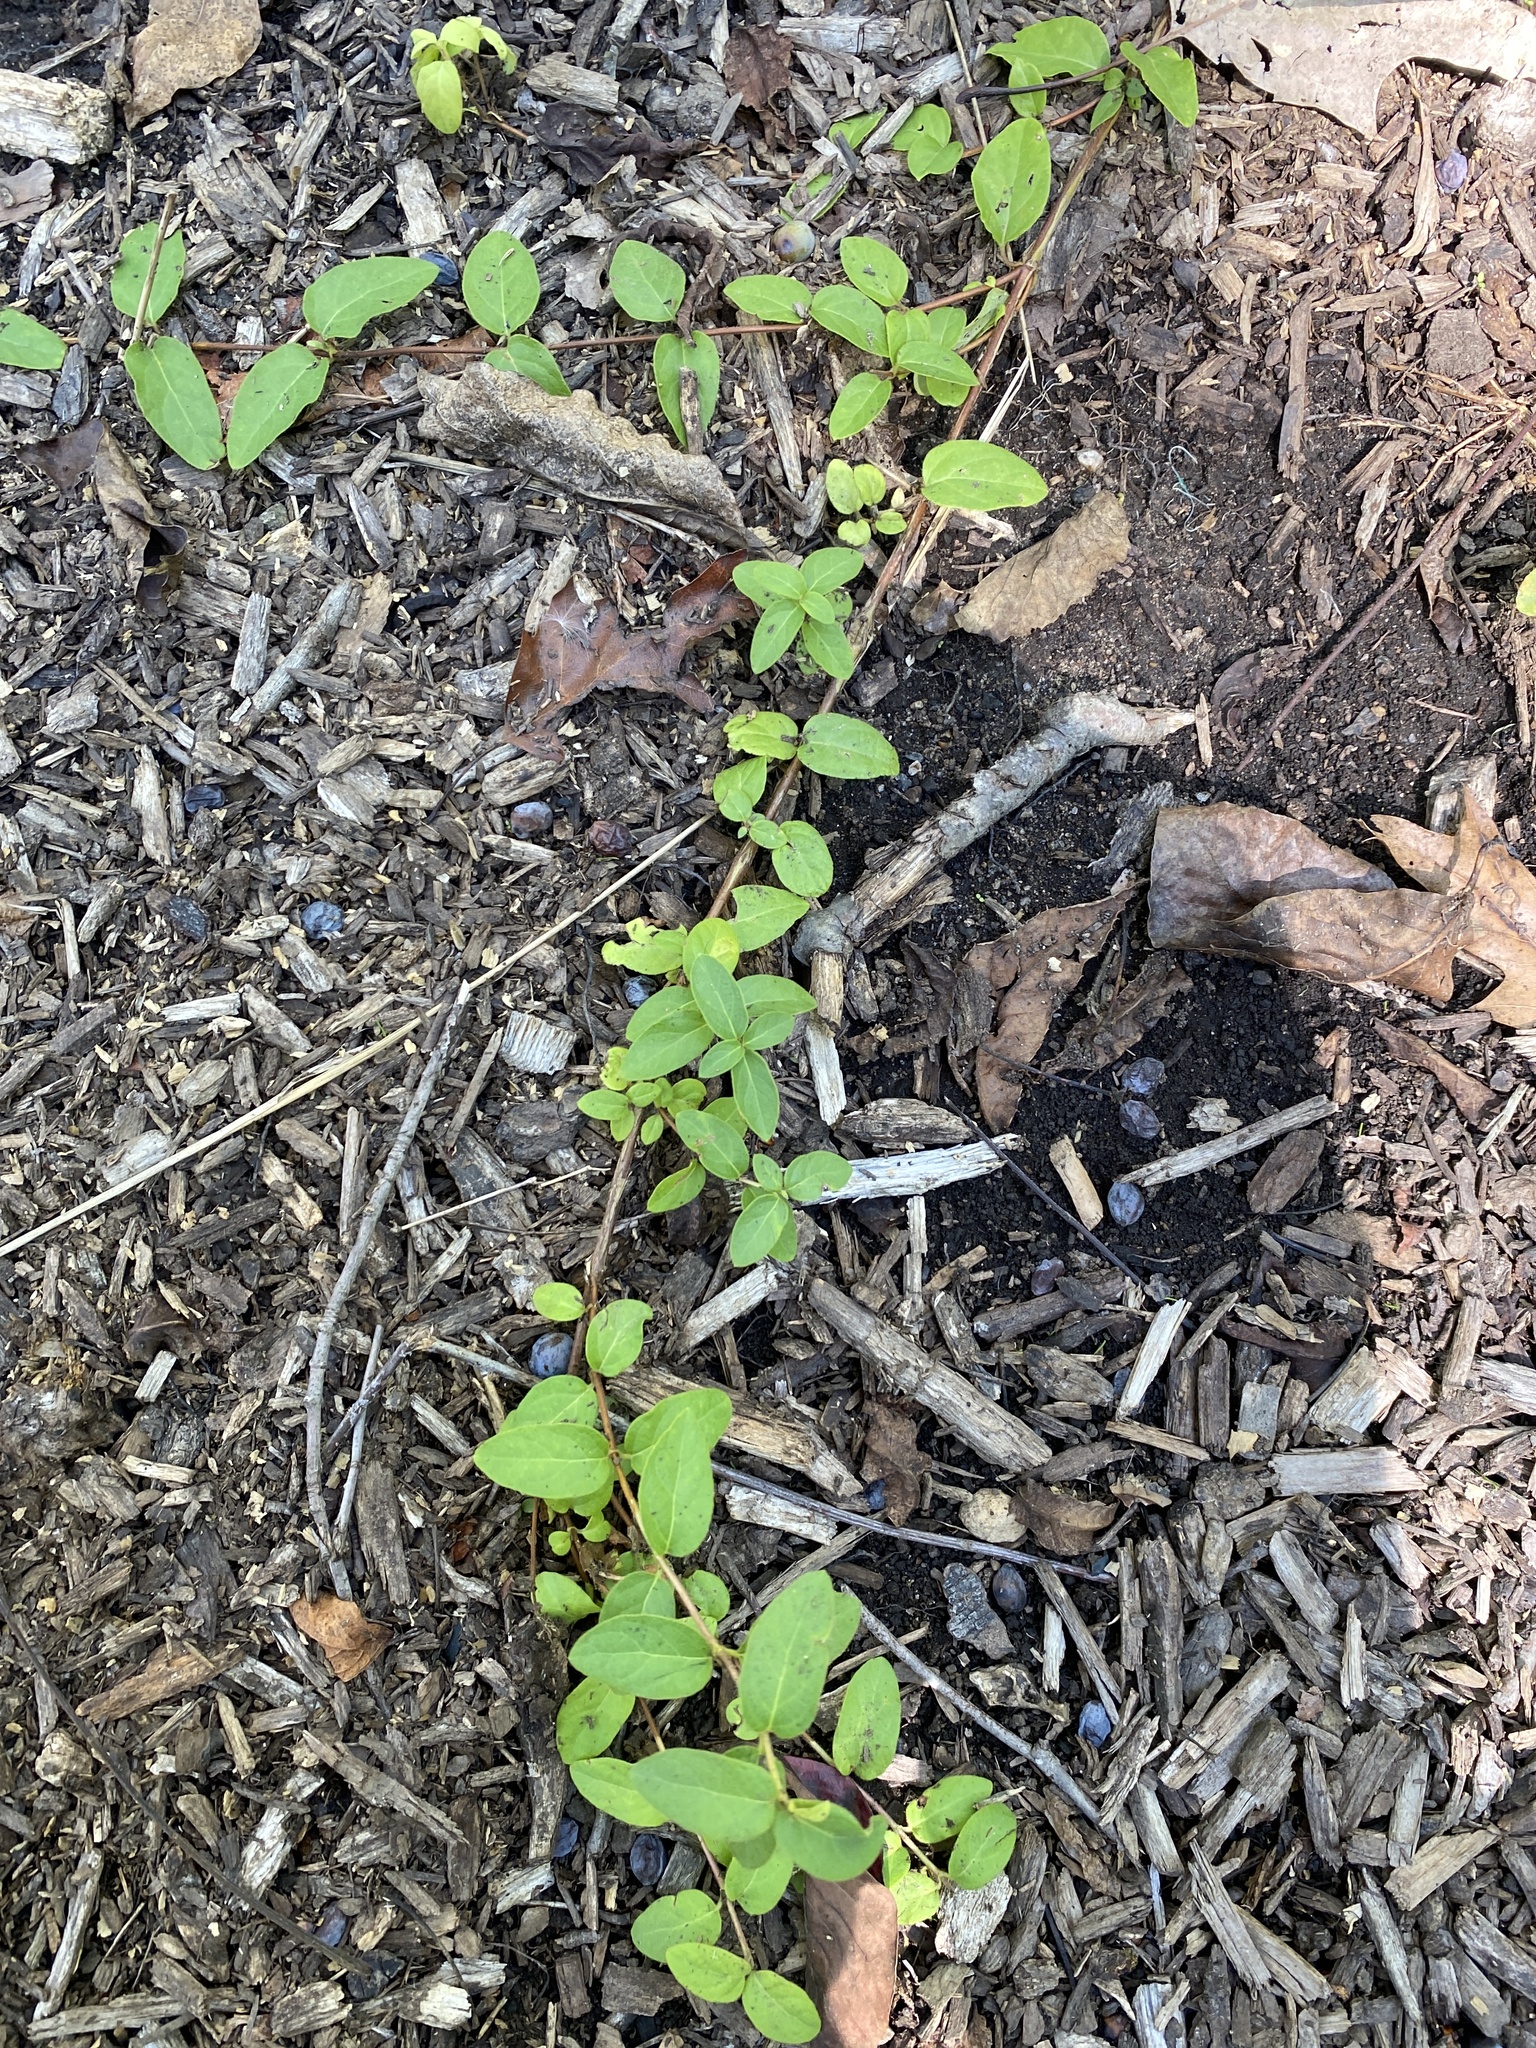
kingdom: Plantae
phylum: Tracheophyta
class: Magnoliopsida
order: Dipsacales
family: Caprifoliaceae
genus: Lonicera
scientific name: Lonicera japonica
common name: Japanese honeysuckle
